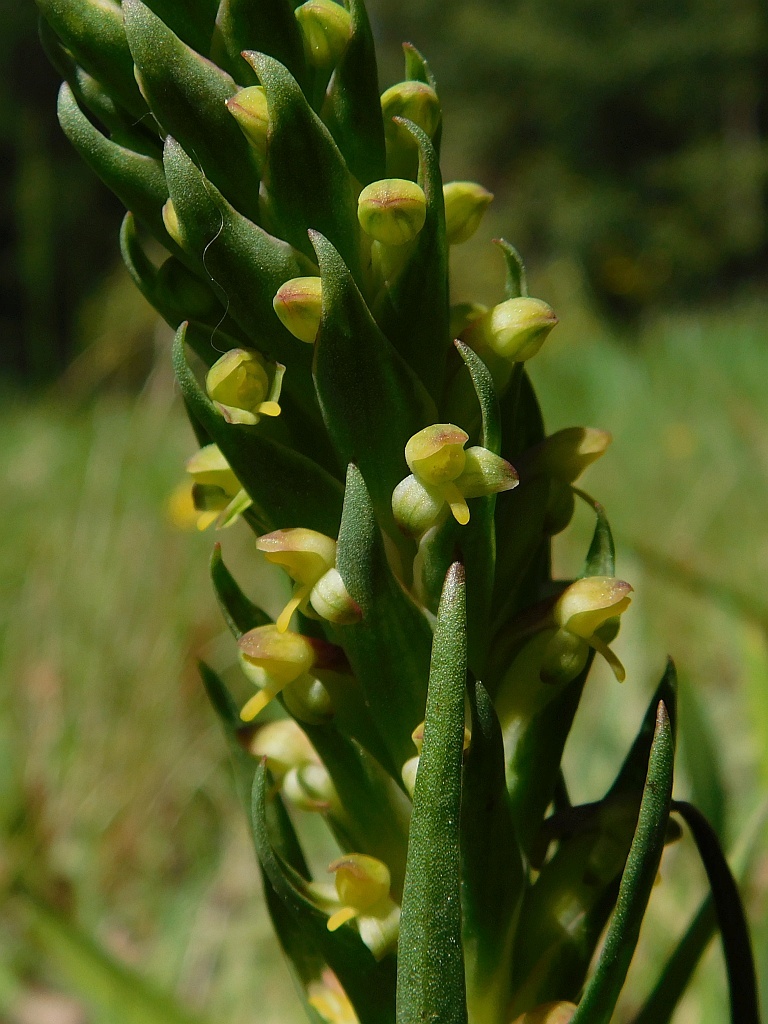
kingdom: Plantae
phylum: Tracheophyta
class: Liliopsida
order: Asparagales
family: Orchidaceae
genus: Disa
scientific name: Disa bracteata
